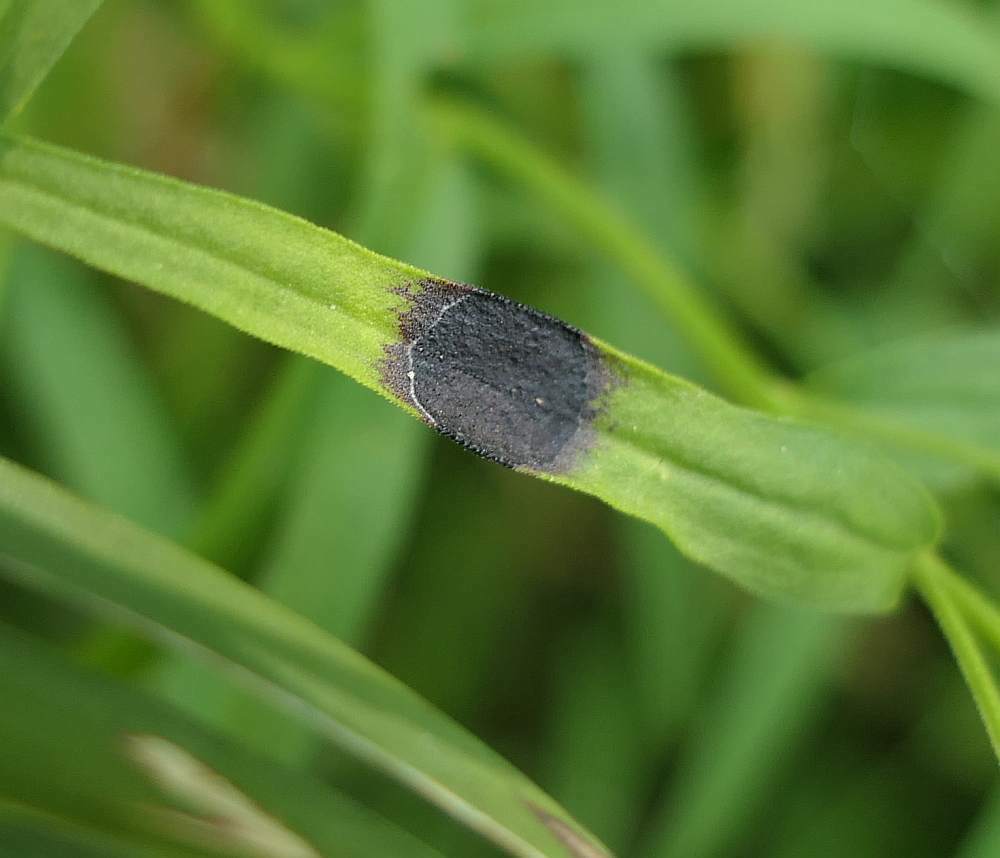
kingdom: Animalia
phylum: Arthropoda
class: Insecta
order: Diptera
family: Cecidomyiidae
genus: Asteromyia
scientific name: Asteromyia euthamiae
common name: Euthamia leaf gall midge
